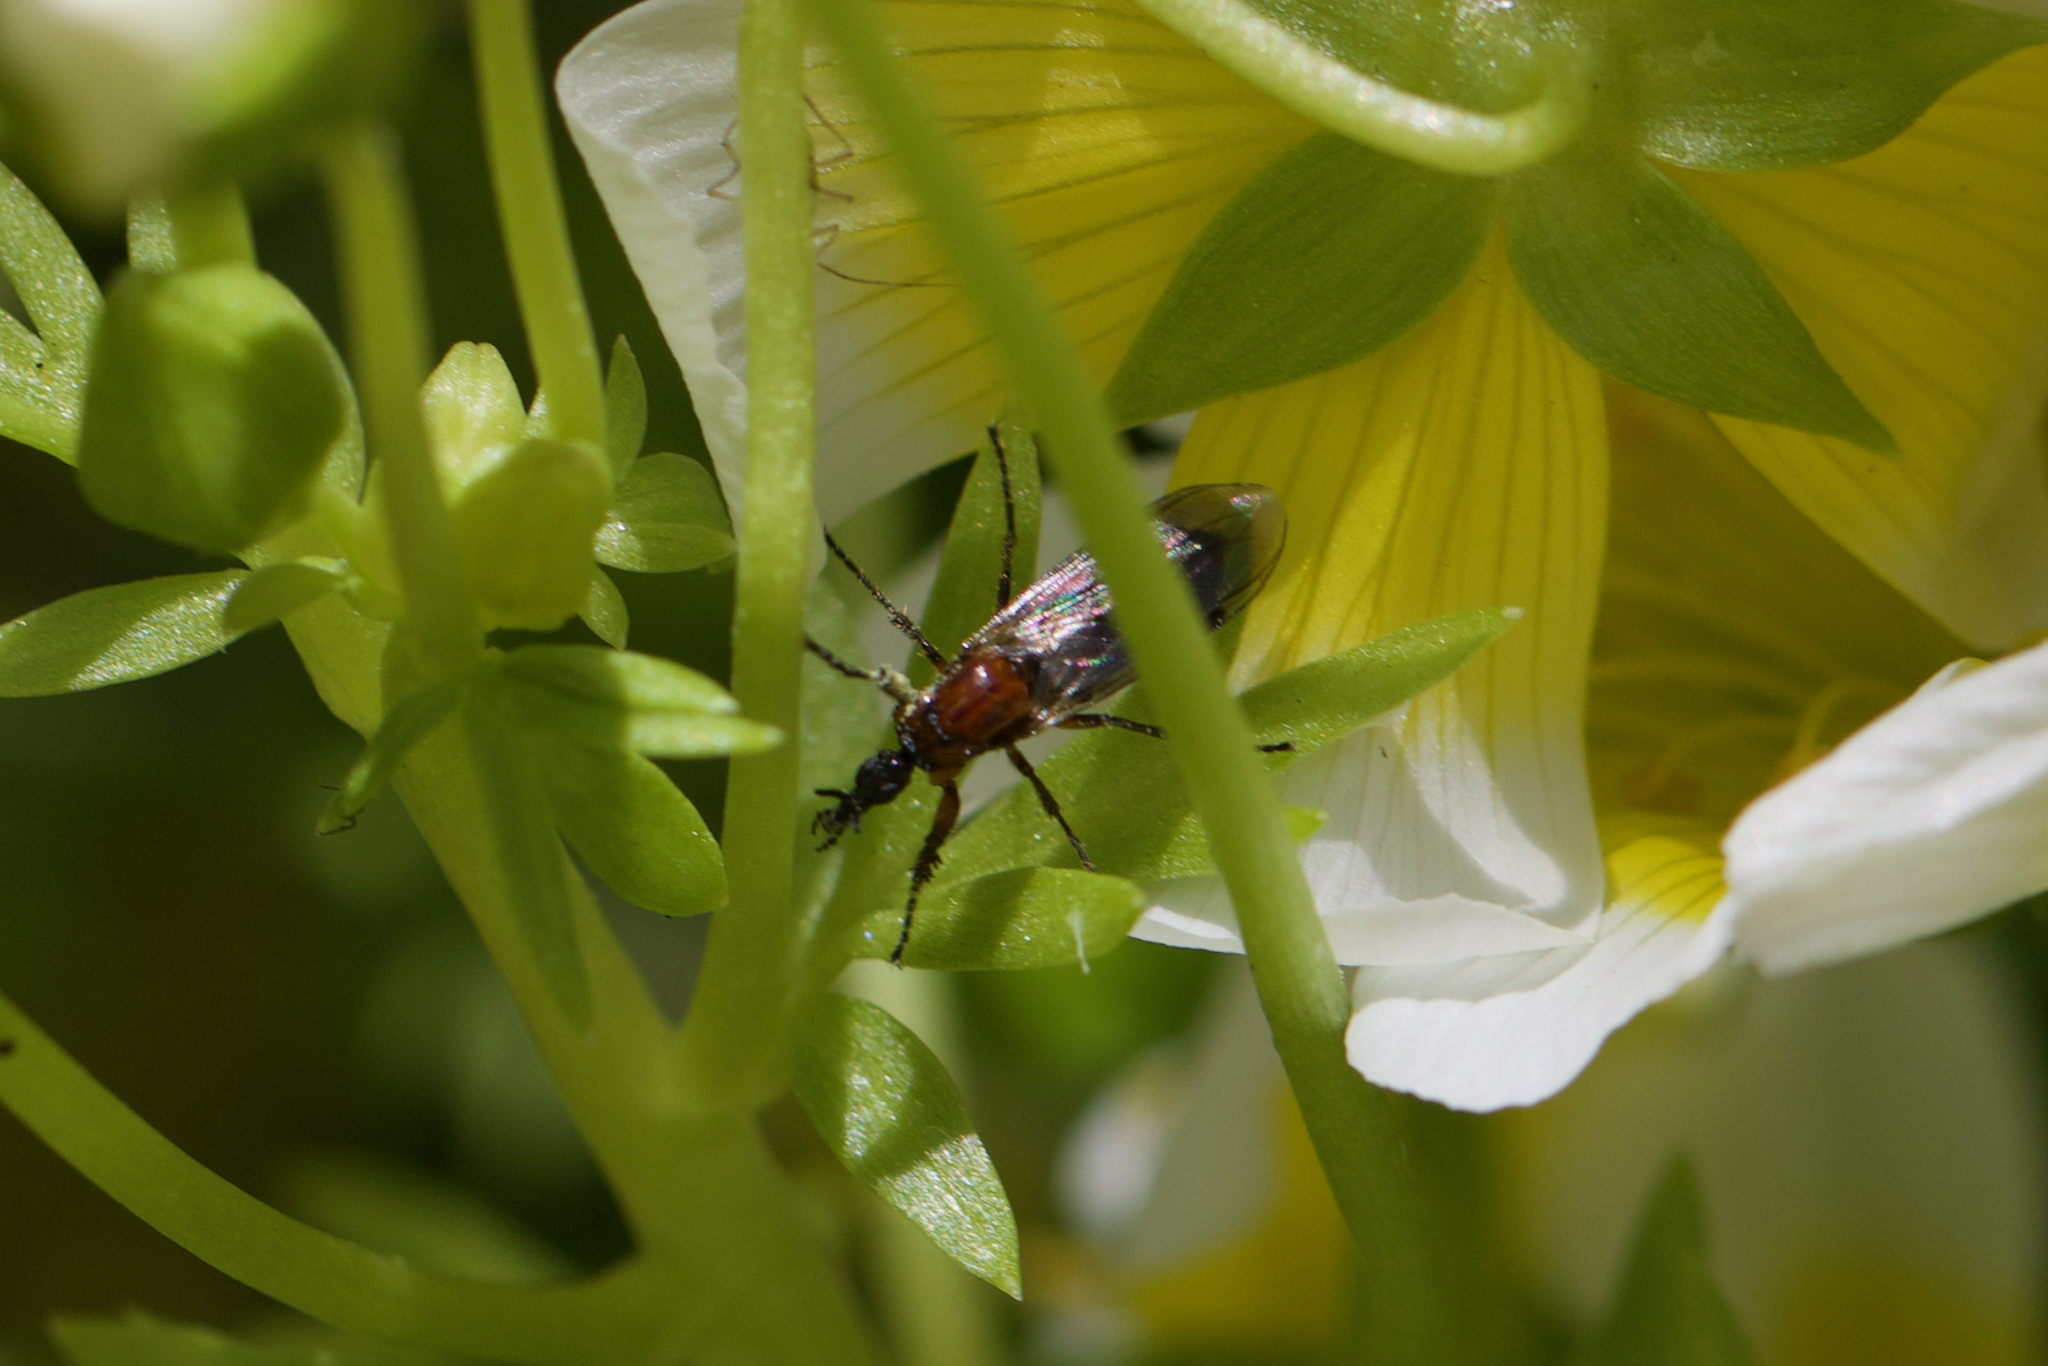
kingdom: Animalia
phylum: Arthropoda
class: Insecta
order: Diptera
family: Bibionidae
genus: Dilophus
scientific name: Dilophus strigilatus
